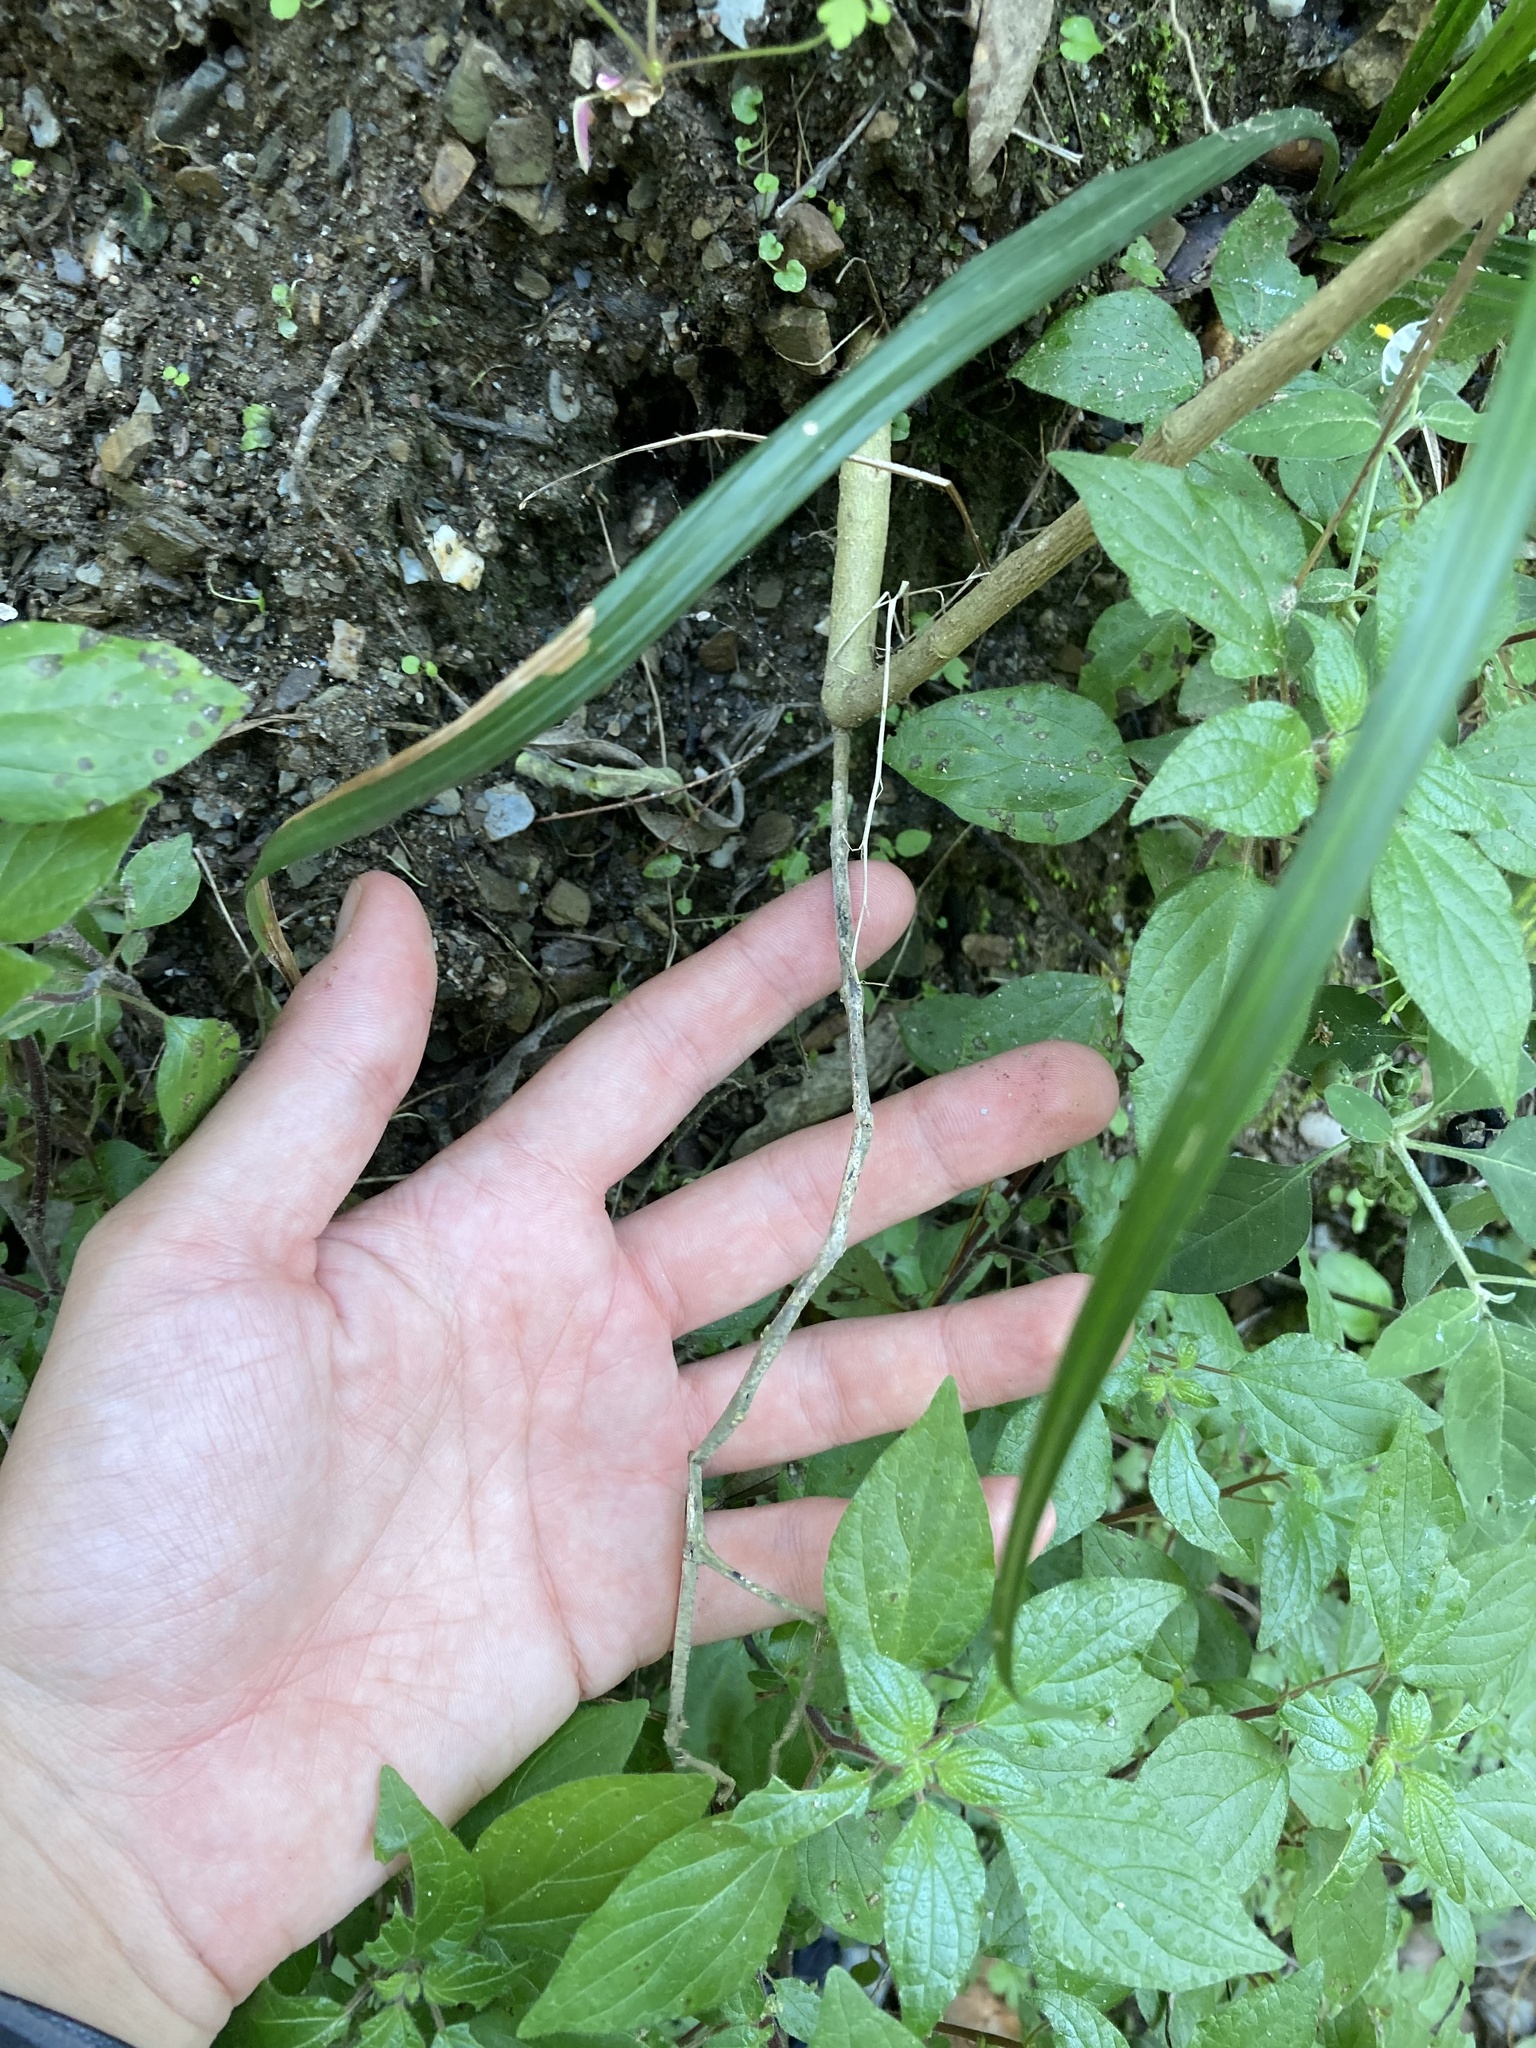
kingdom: Plantae
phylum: Tracheophyta
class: Magnoliopsida
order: Solanales
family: Solanaceae
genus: Solanum
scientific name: Solanum chenopodioides
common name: Tall nightshade
